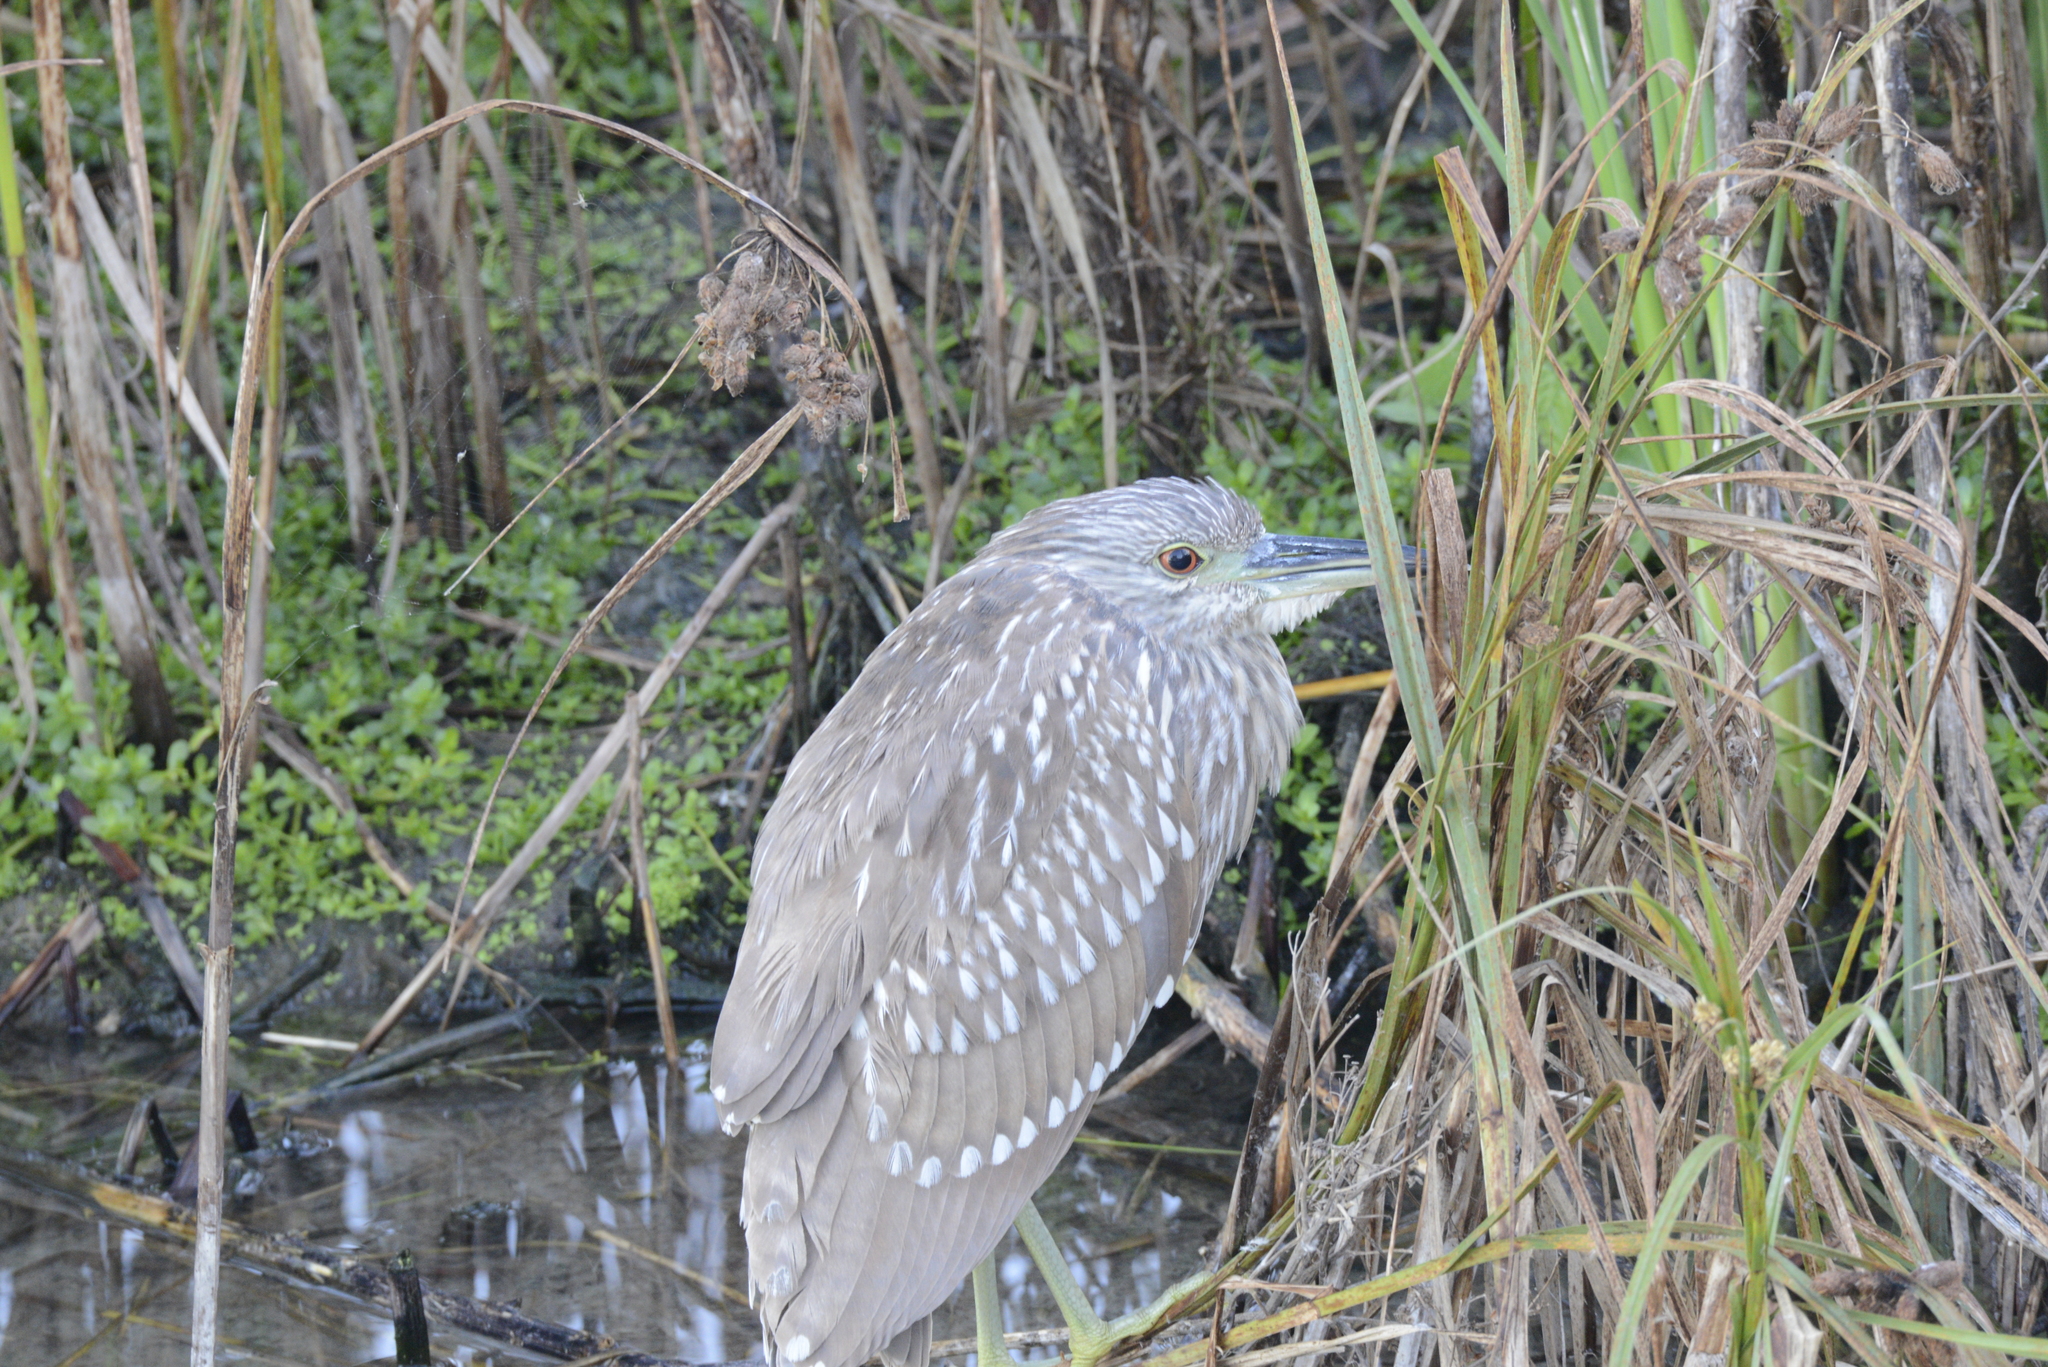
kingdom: Animalia
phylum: Chordata
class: Aves
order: Pelecaniformes
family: Ardeidae
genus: Nycticorax
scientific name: Nycticorax nycticorax
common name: Black-crowned night heron
